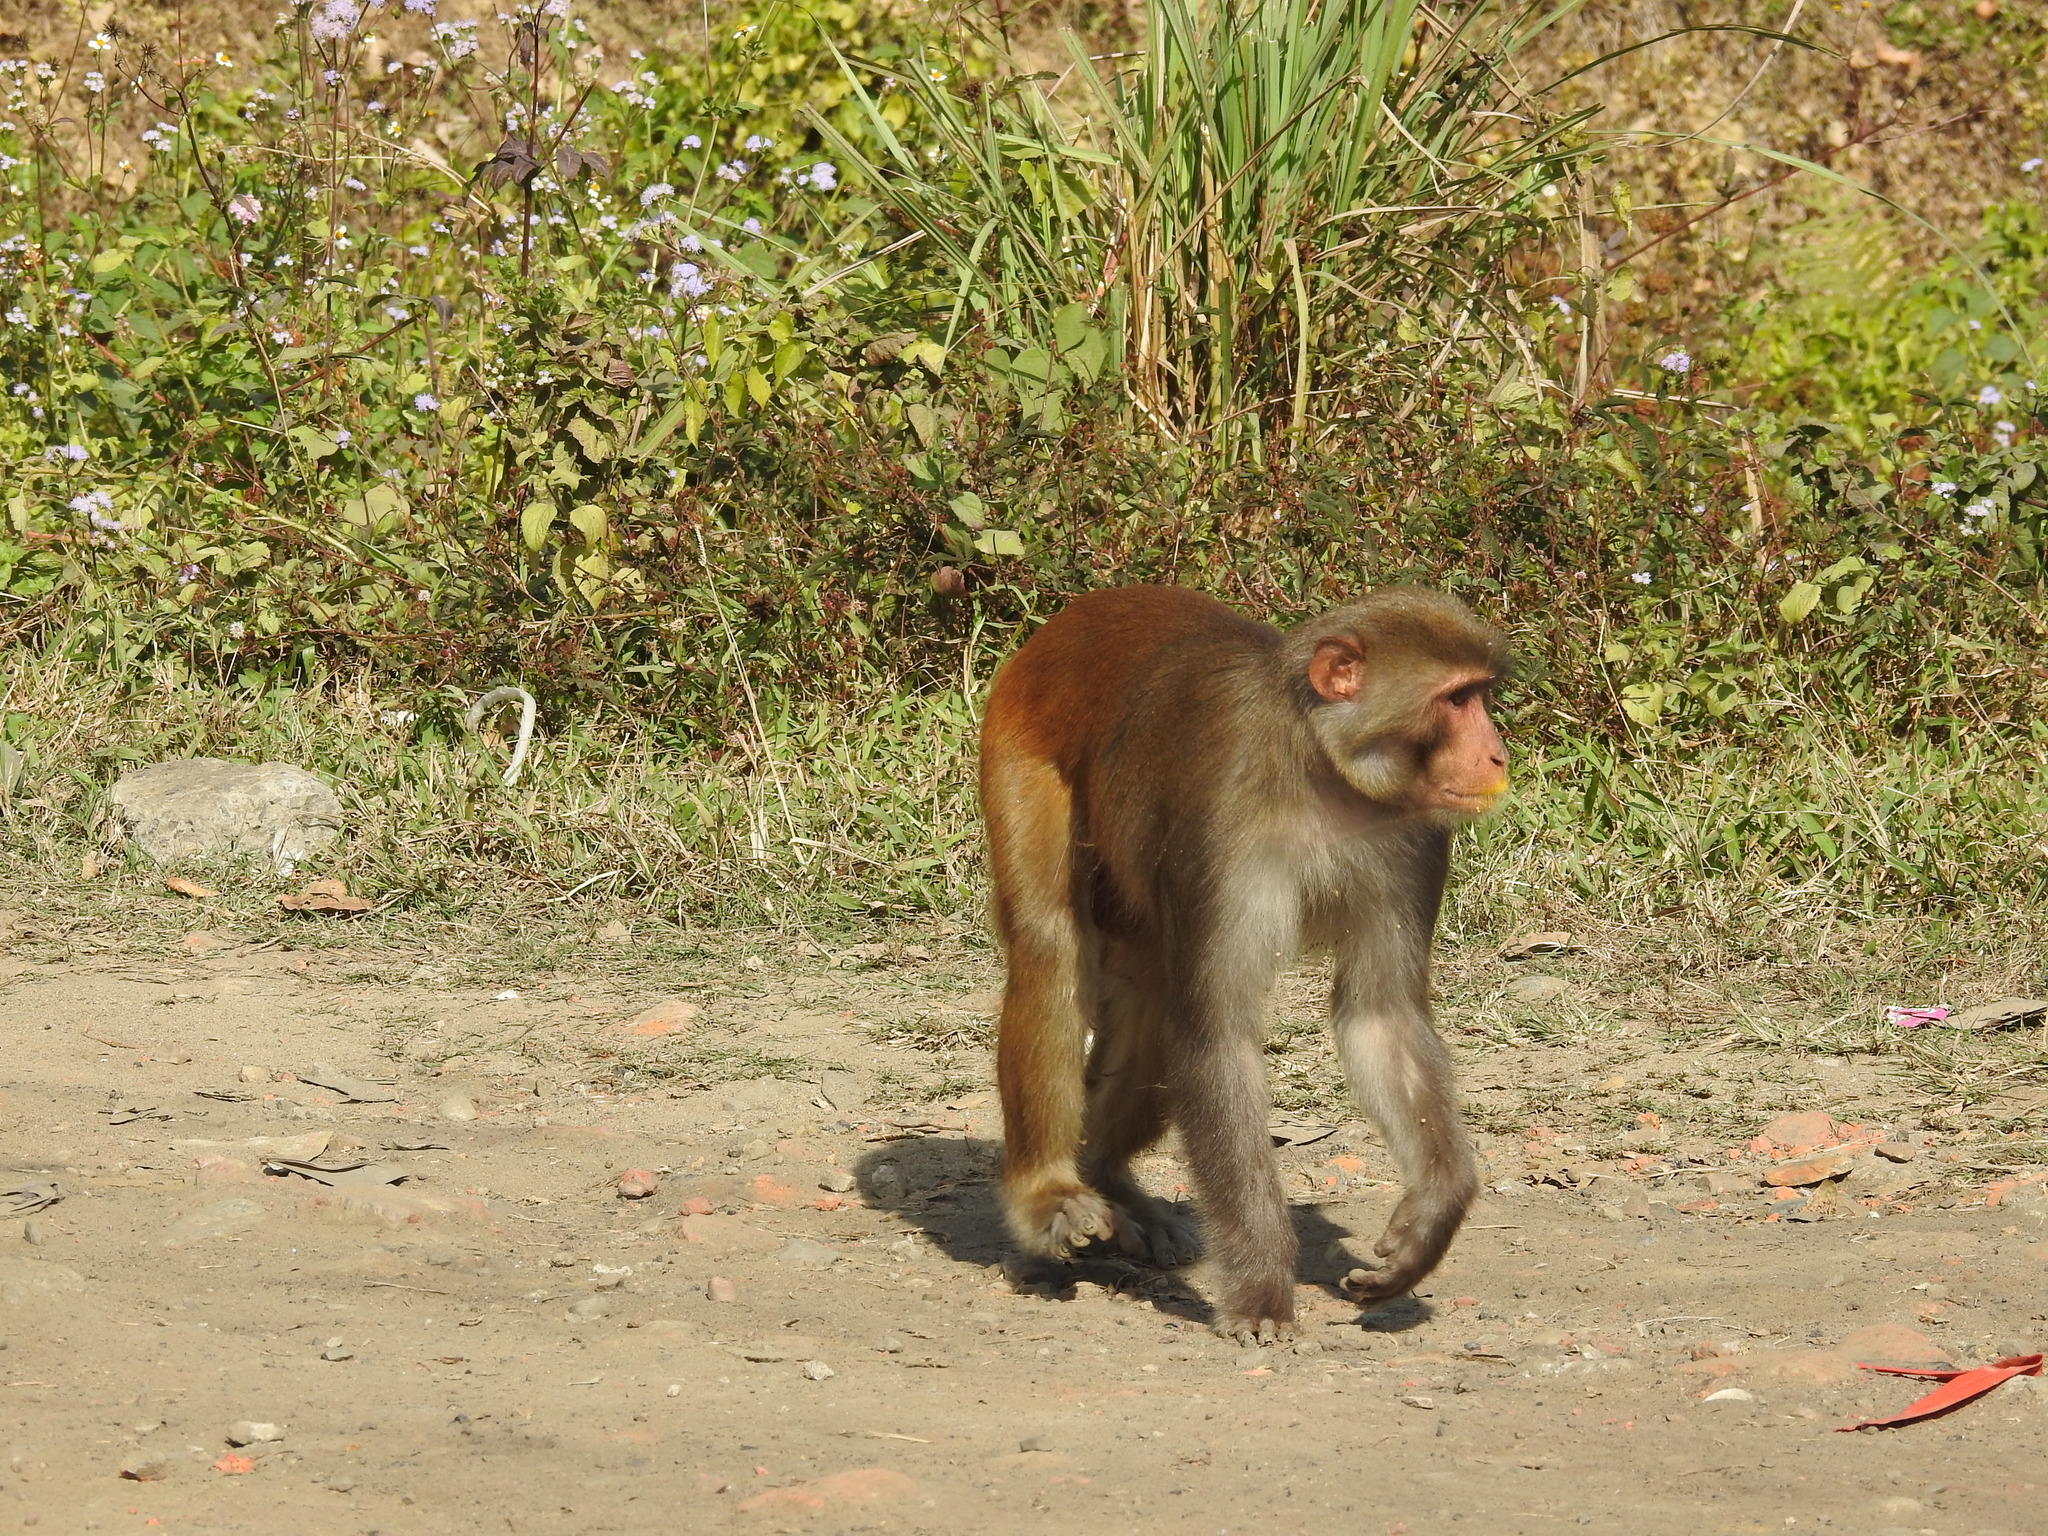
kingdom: Animalia
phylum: Chordata
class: Mammalia
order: Primates
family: Cercopithecidae
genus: Macaca
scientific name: Macaca mulatta
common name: Rhesus monkey
